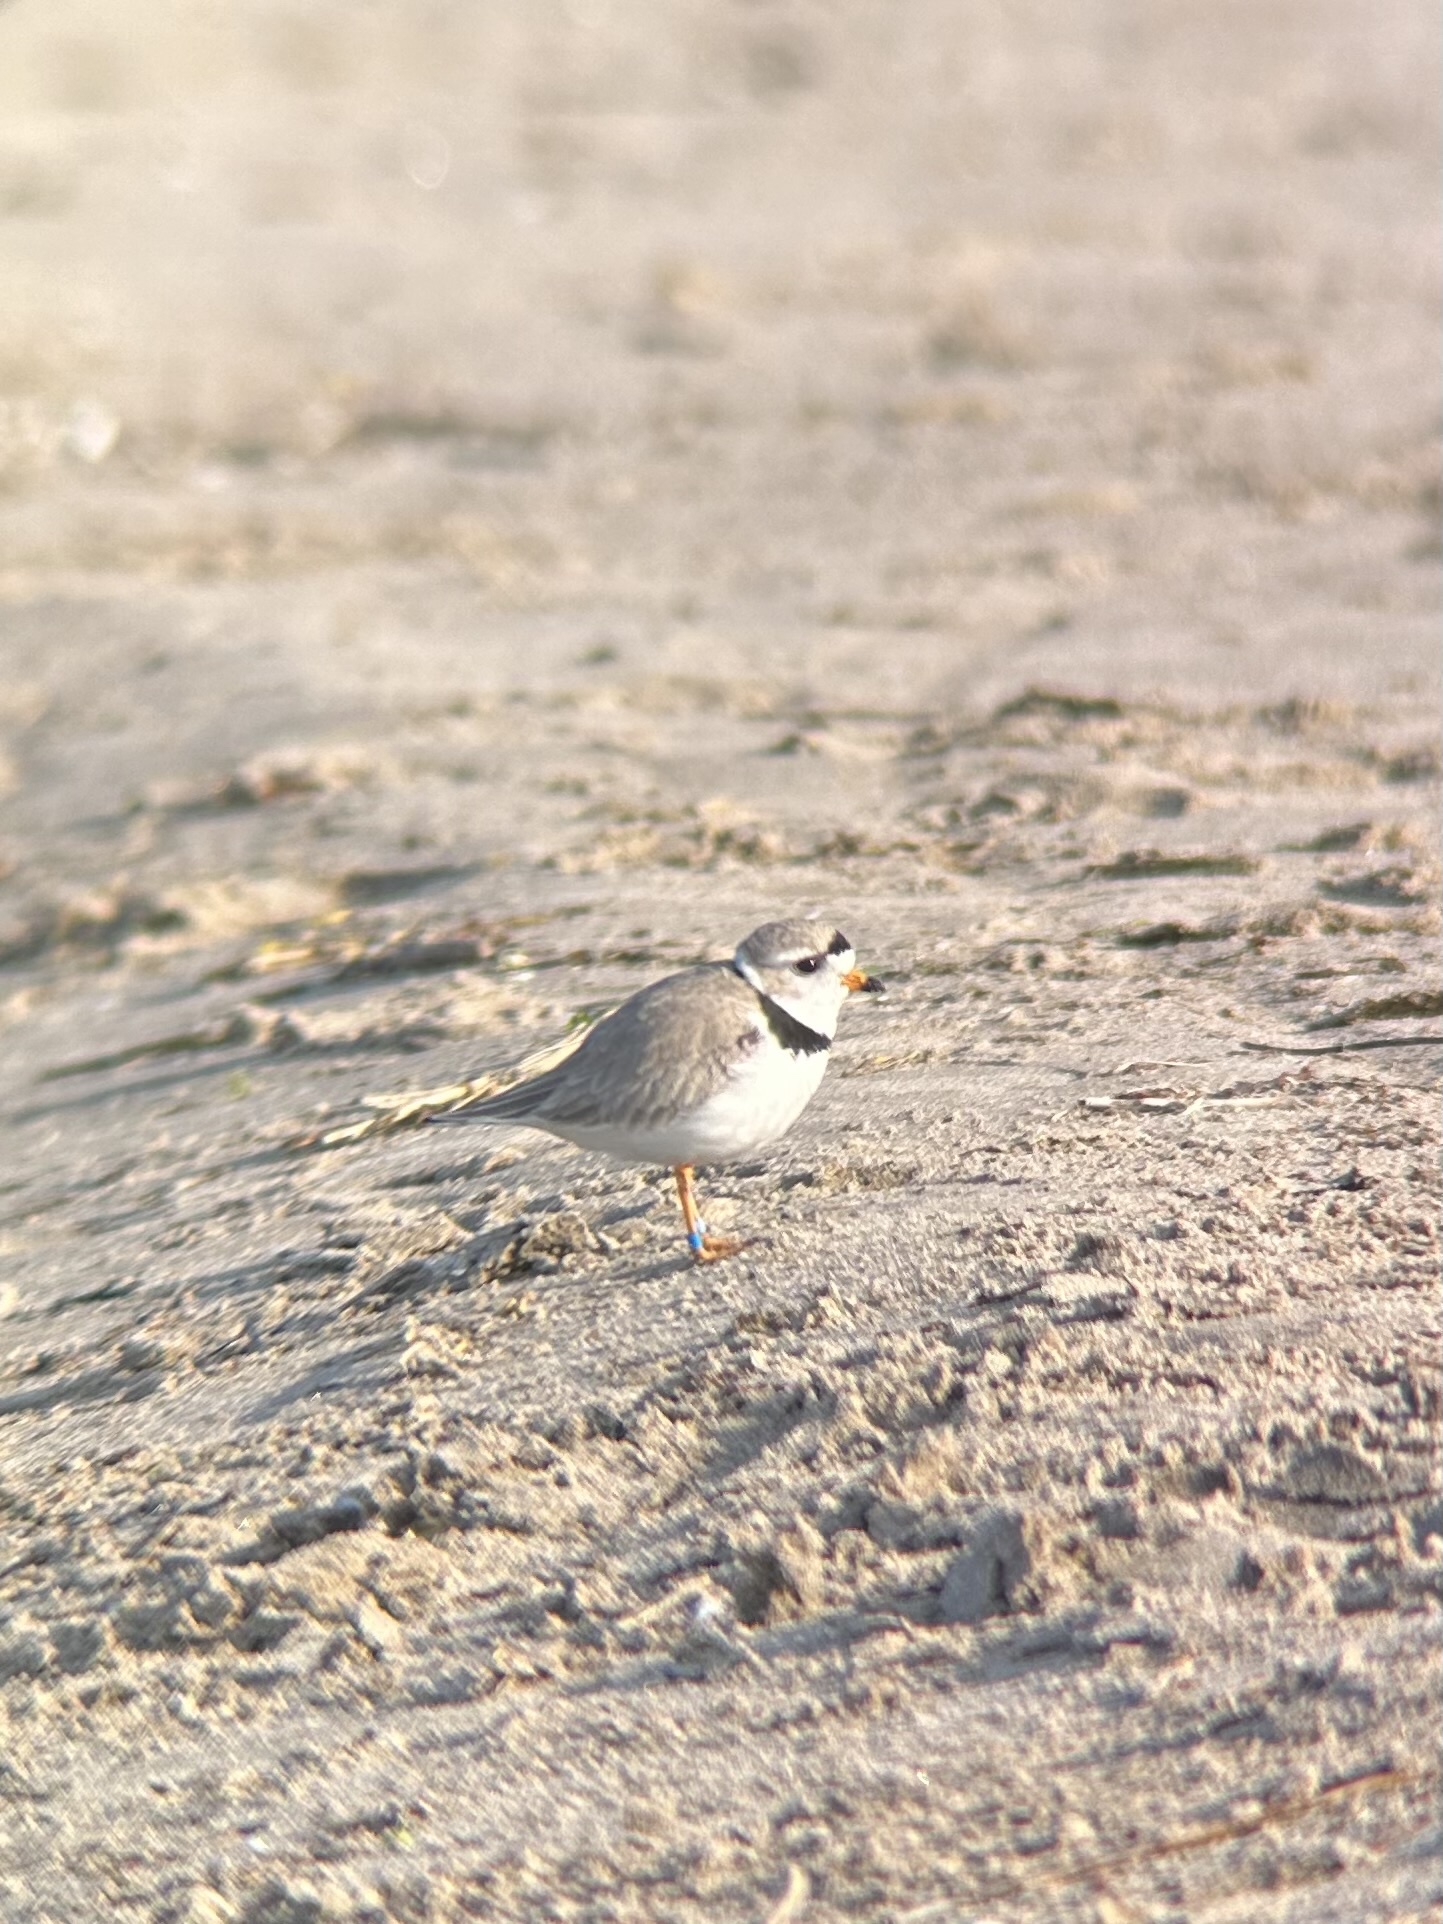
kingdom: Animalia
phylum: Chordata
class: Aves
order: Charadriiformes
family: Charadriidae
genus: Charadrius
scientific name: Charadrius melodus
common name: Piping plover
